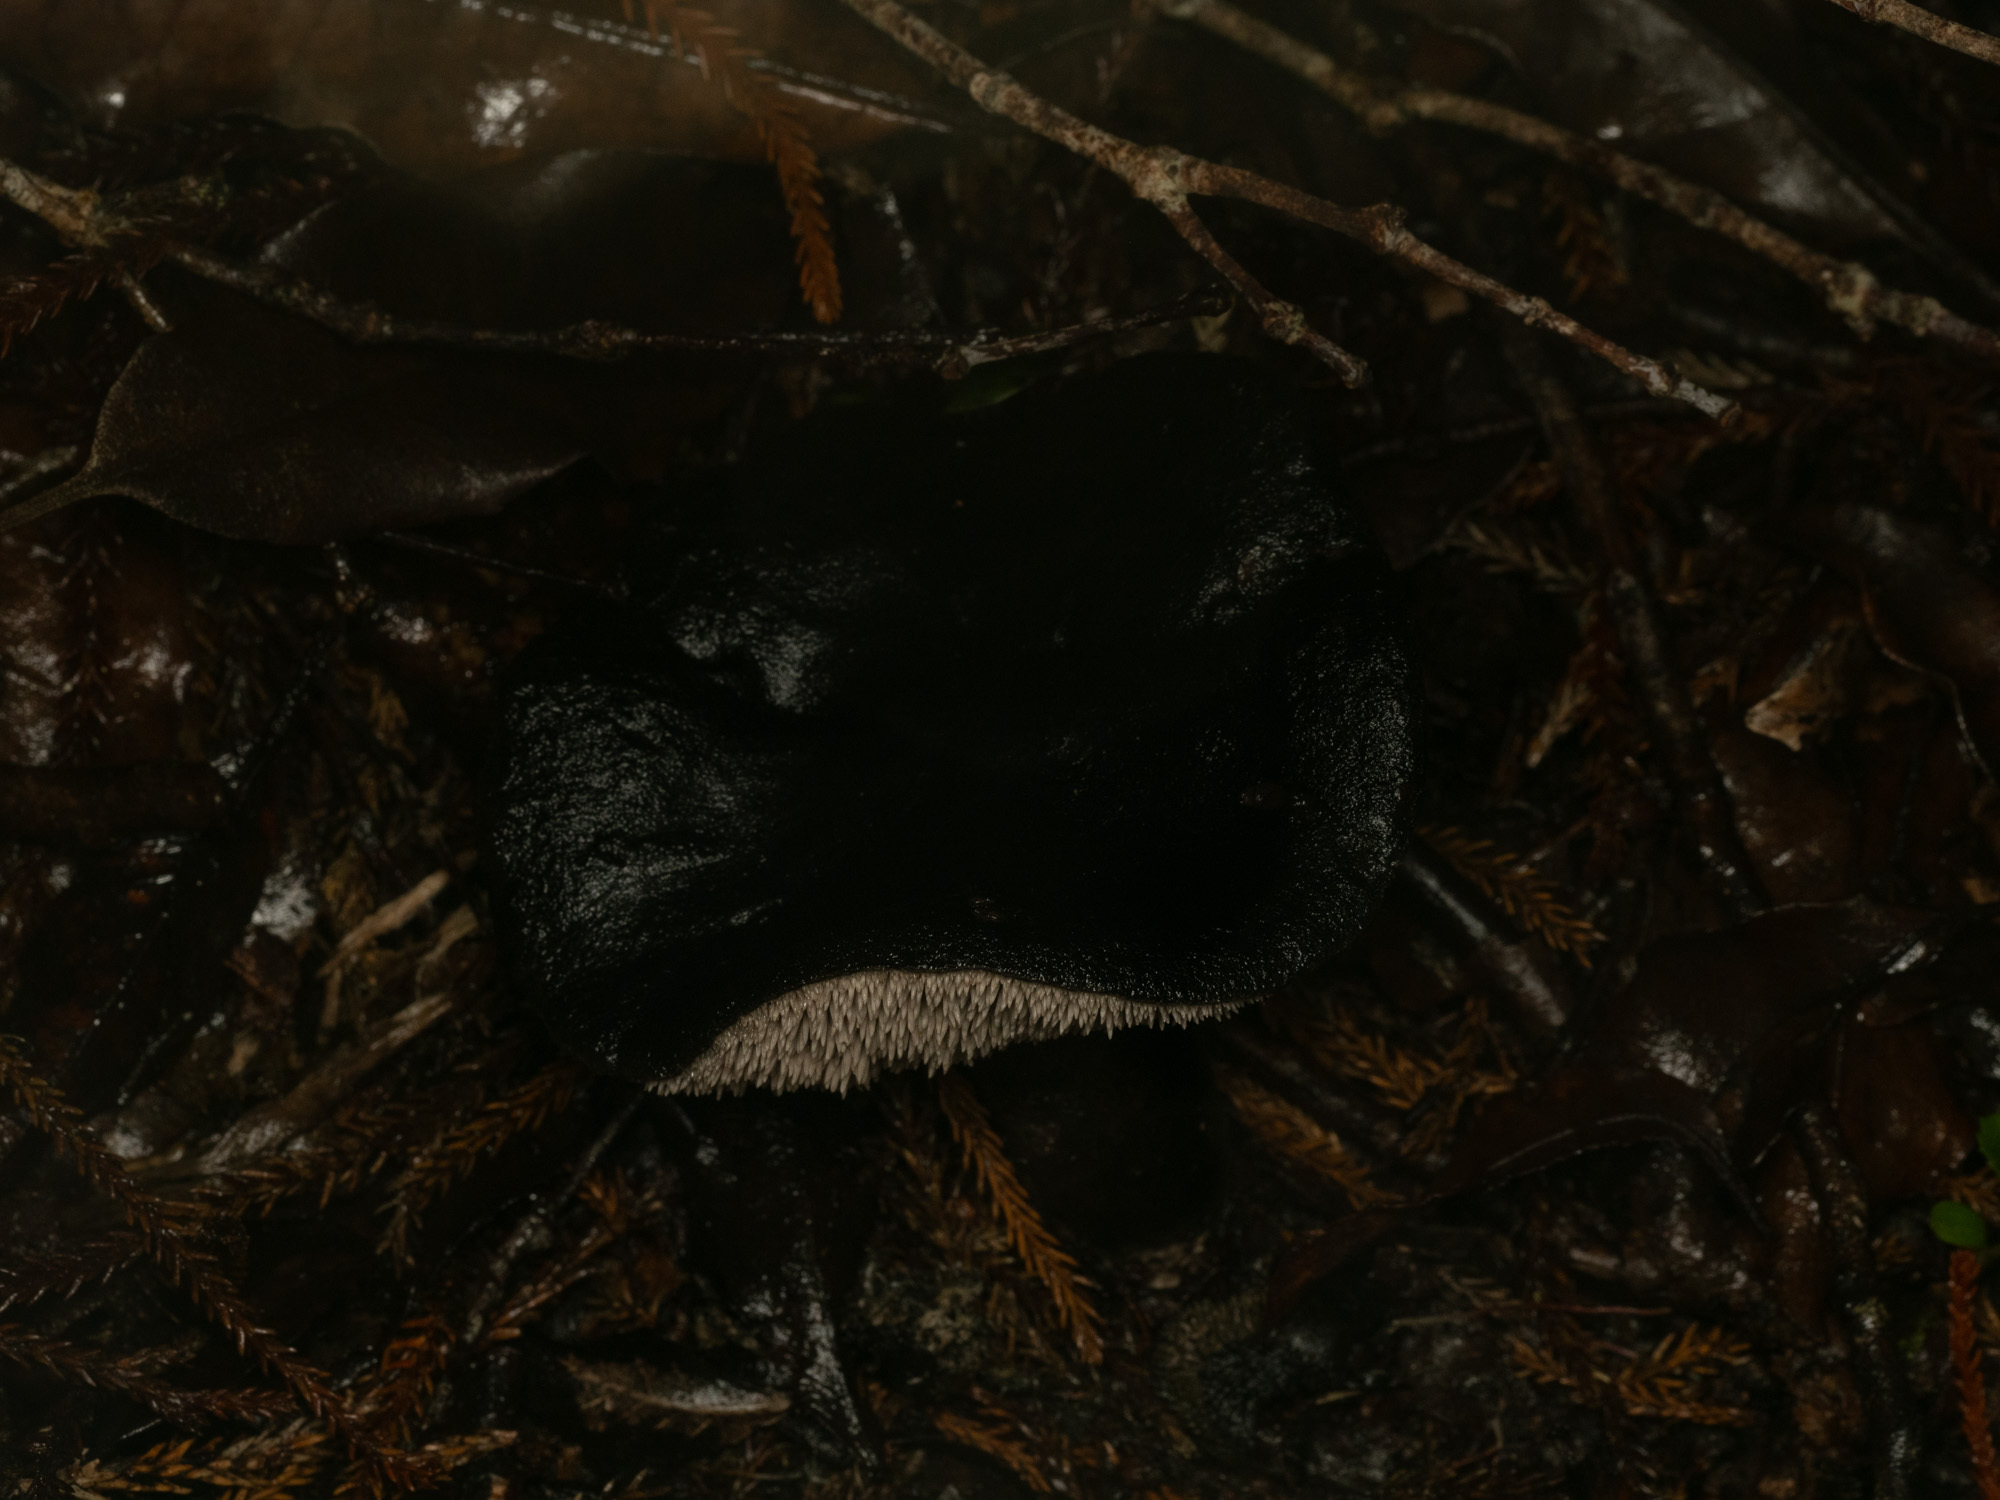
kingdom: Fungi
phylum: Basidiomycota
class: Agaricomycetes
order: Thelephorales
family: Bankeraceae
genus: Sarcodon
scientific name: Sarcodon carbonarius
